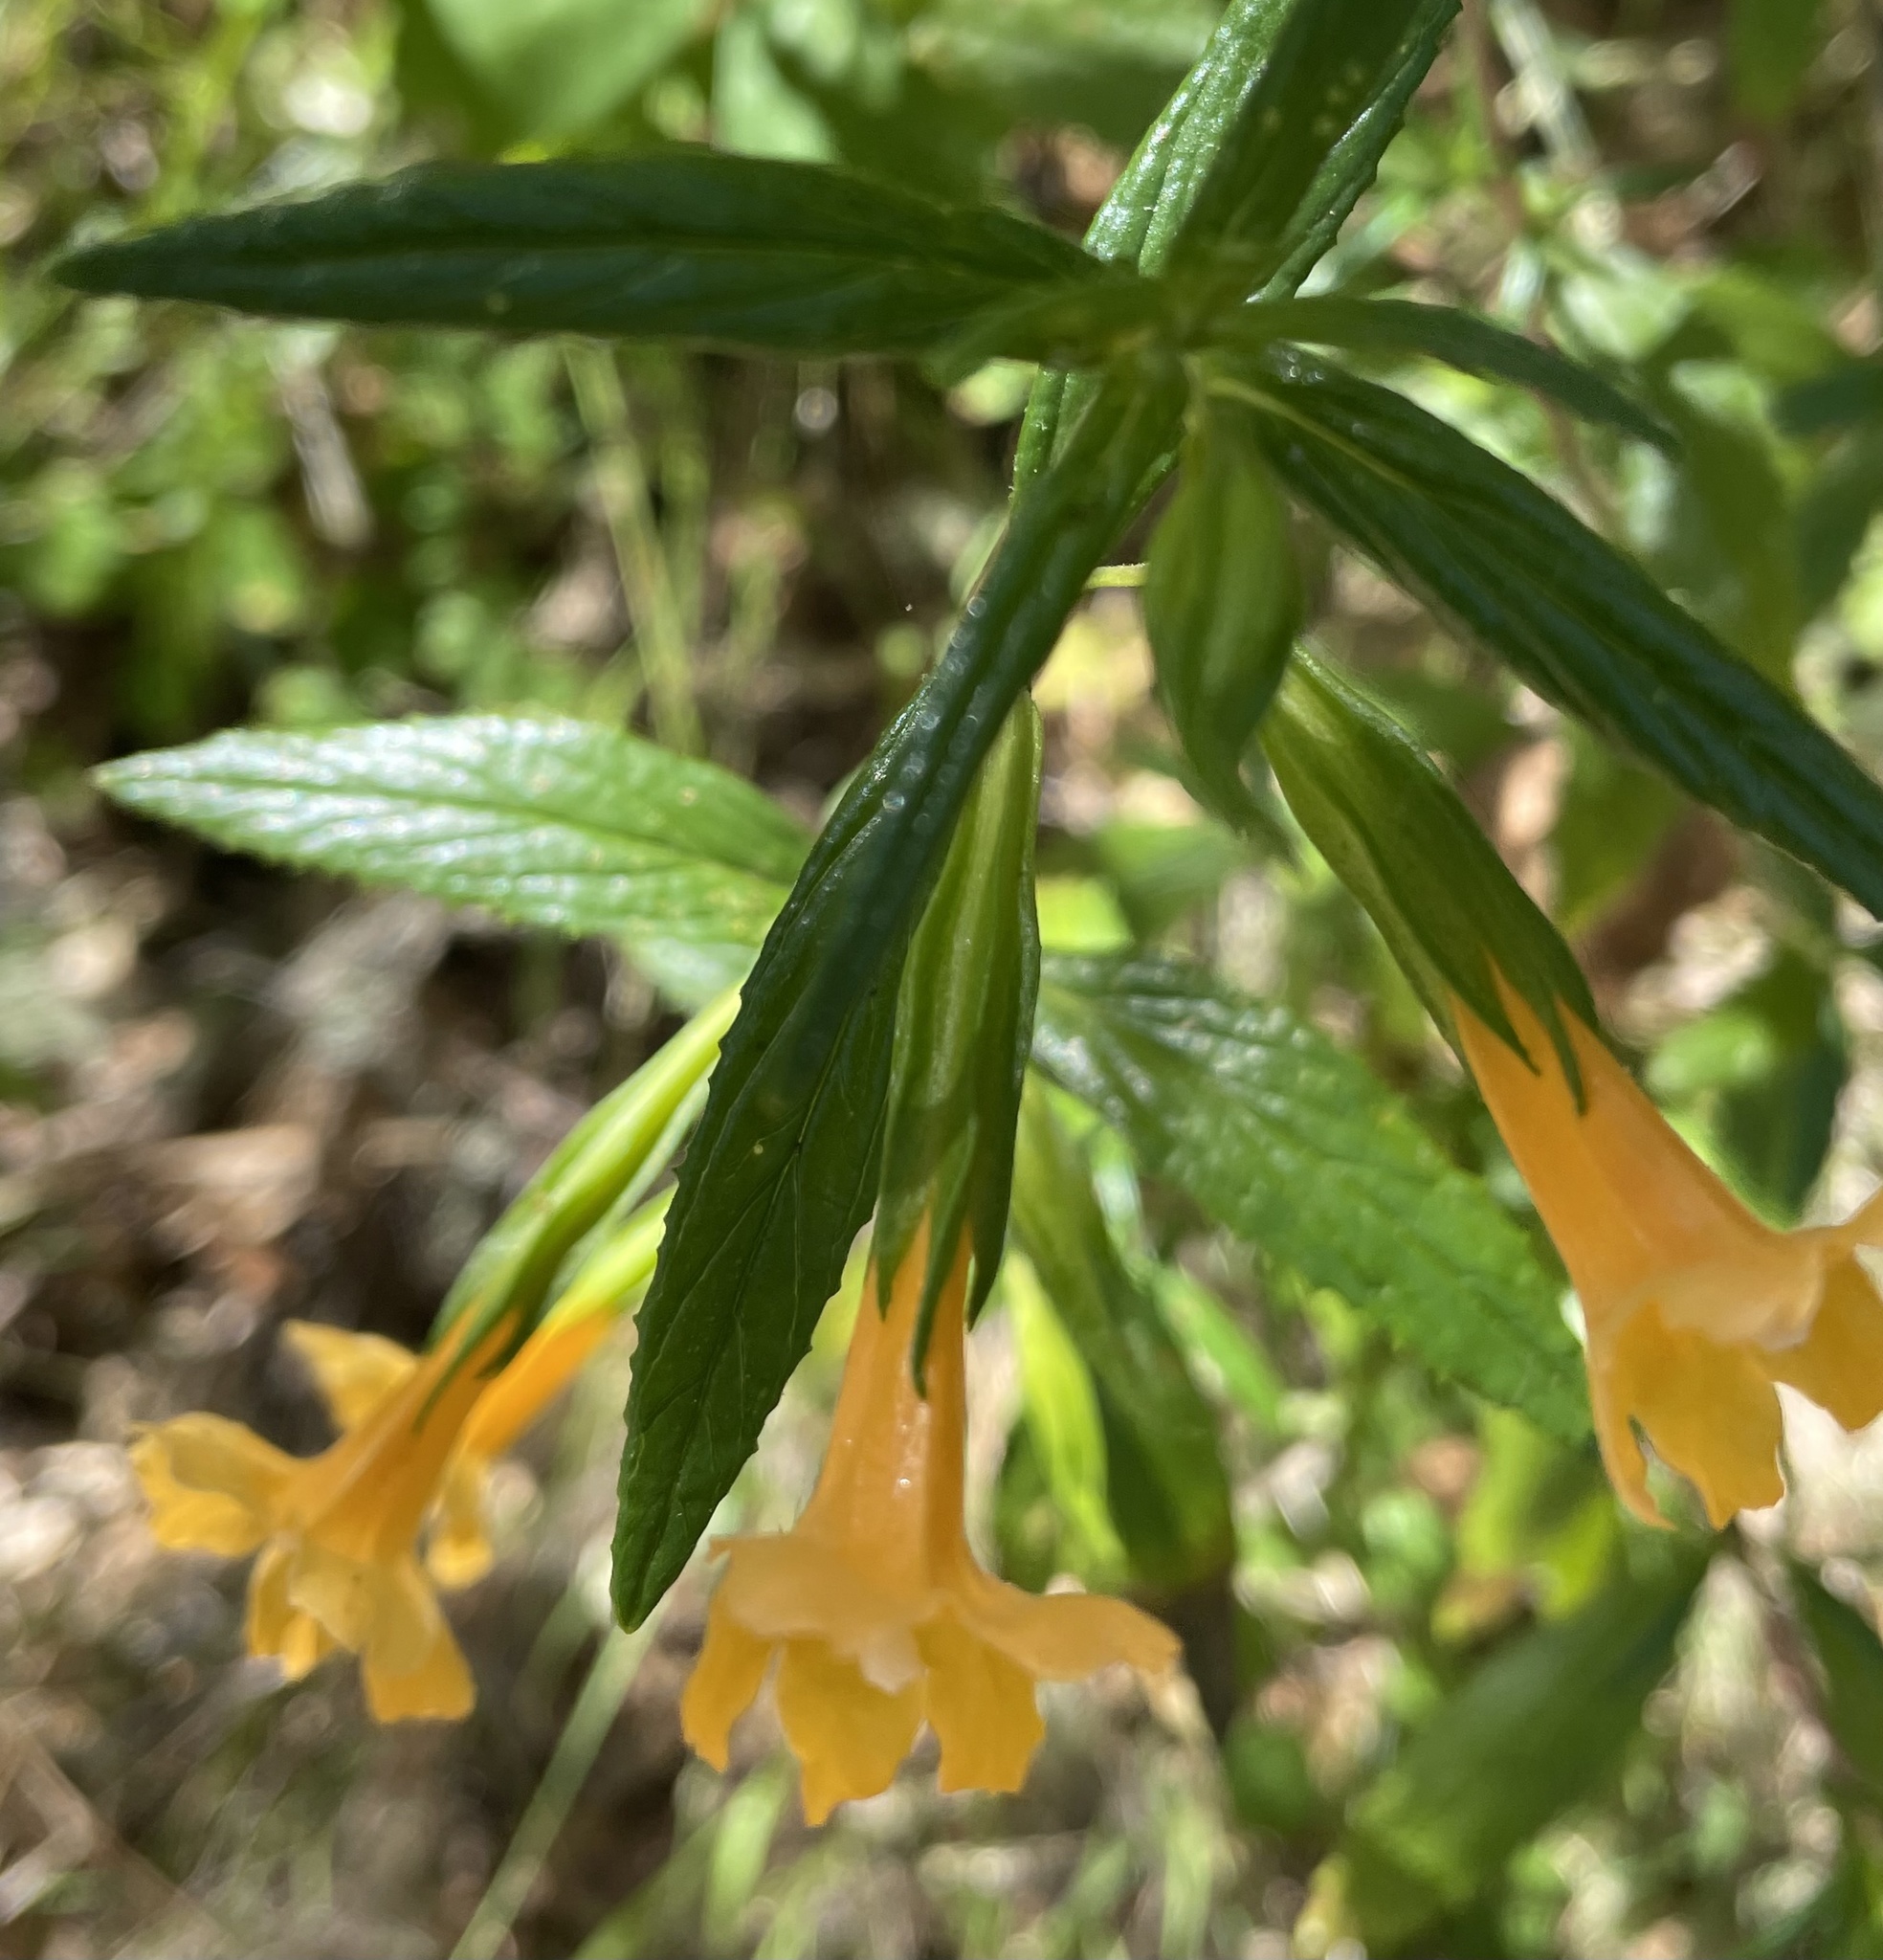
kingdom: Plantae
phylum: Tracheophyta
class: Magnoliopsida
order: Lamiales
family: Phrymaceae
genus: Diplacus
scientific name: Diplacus aurantiacus
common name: Bush monkey-flower
